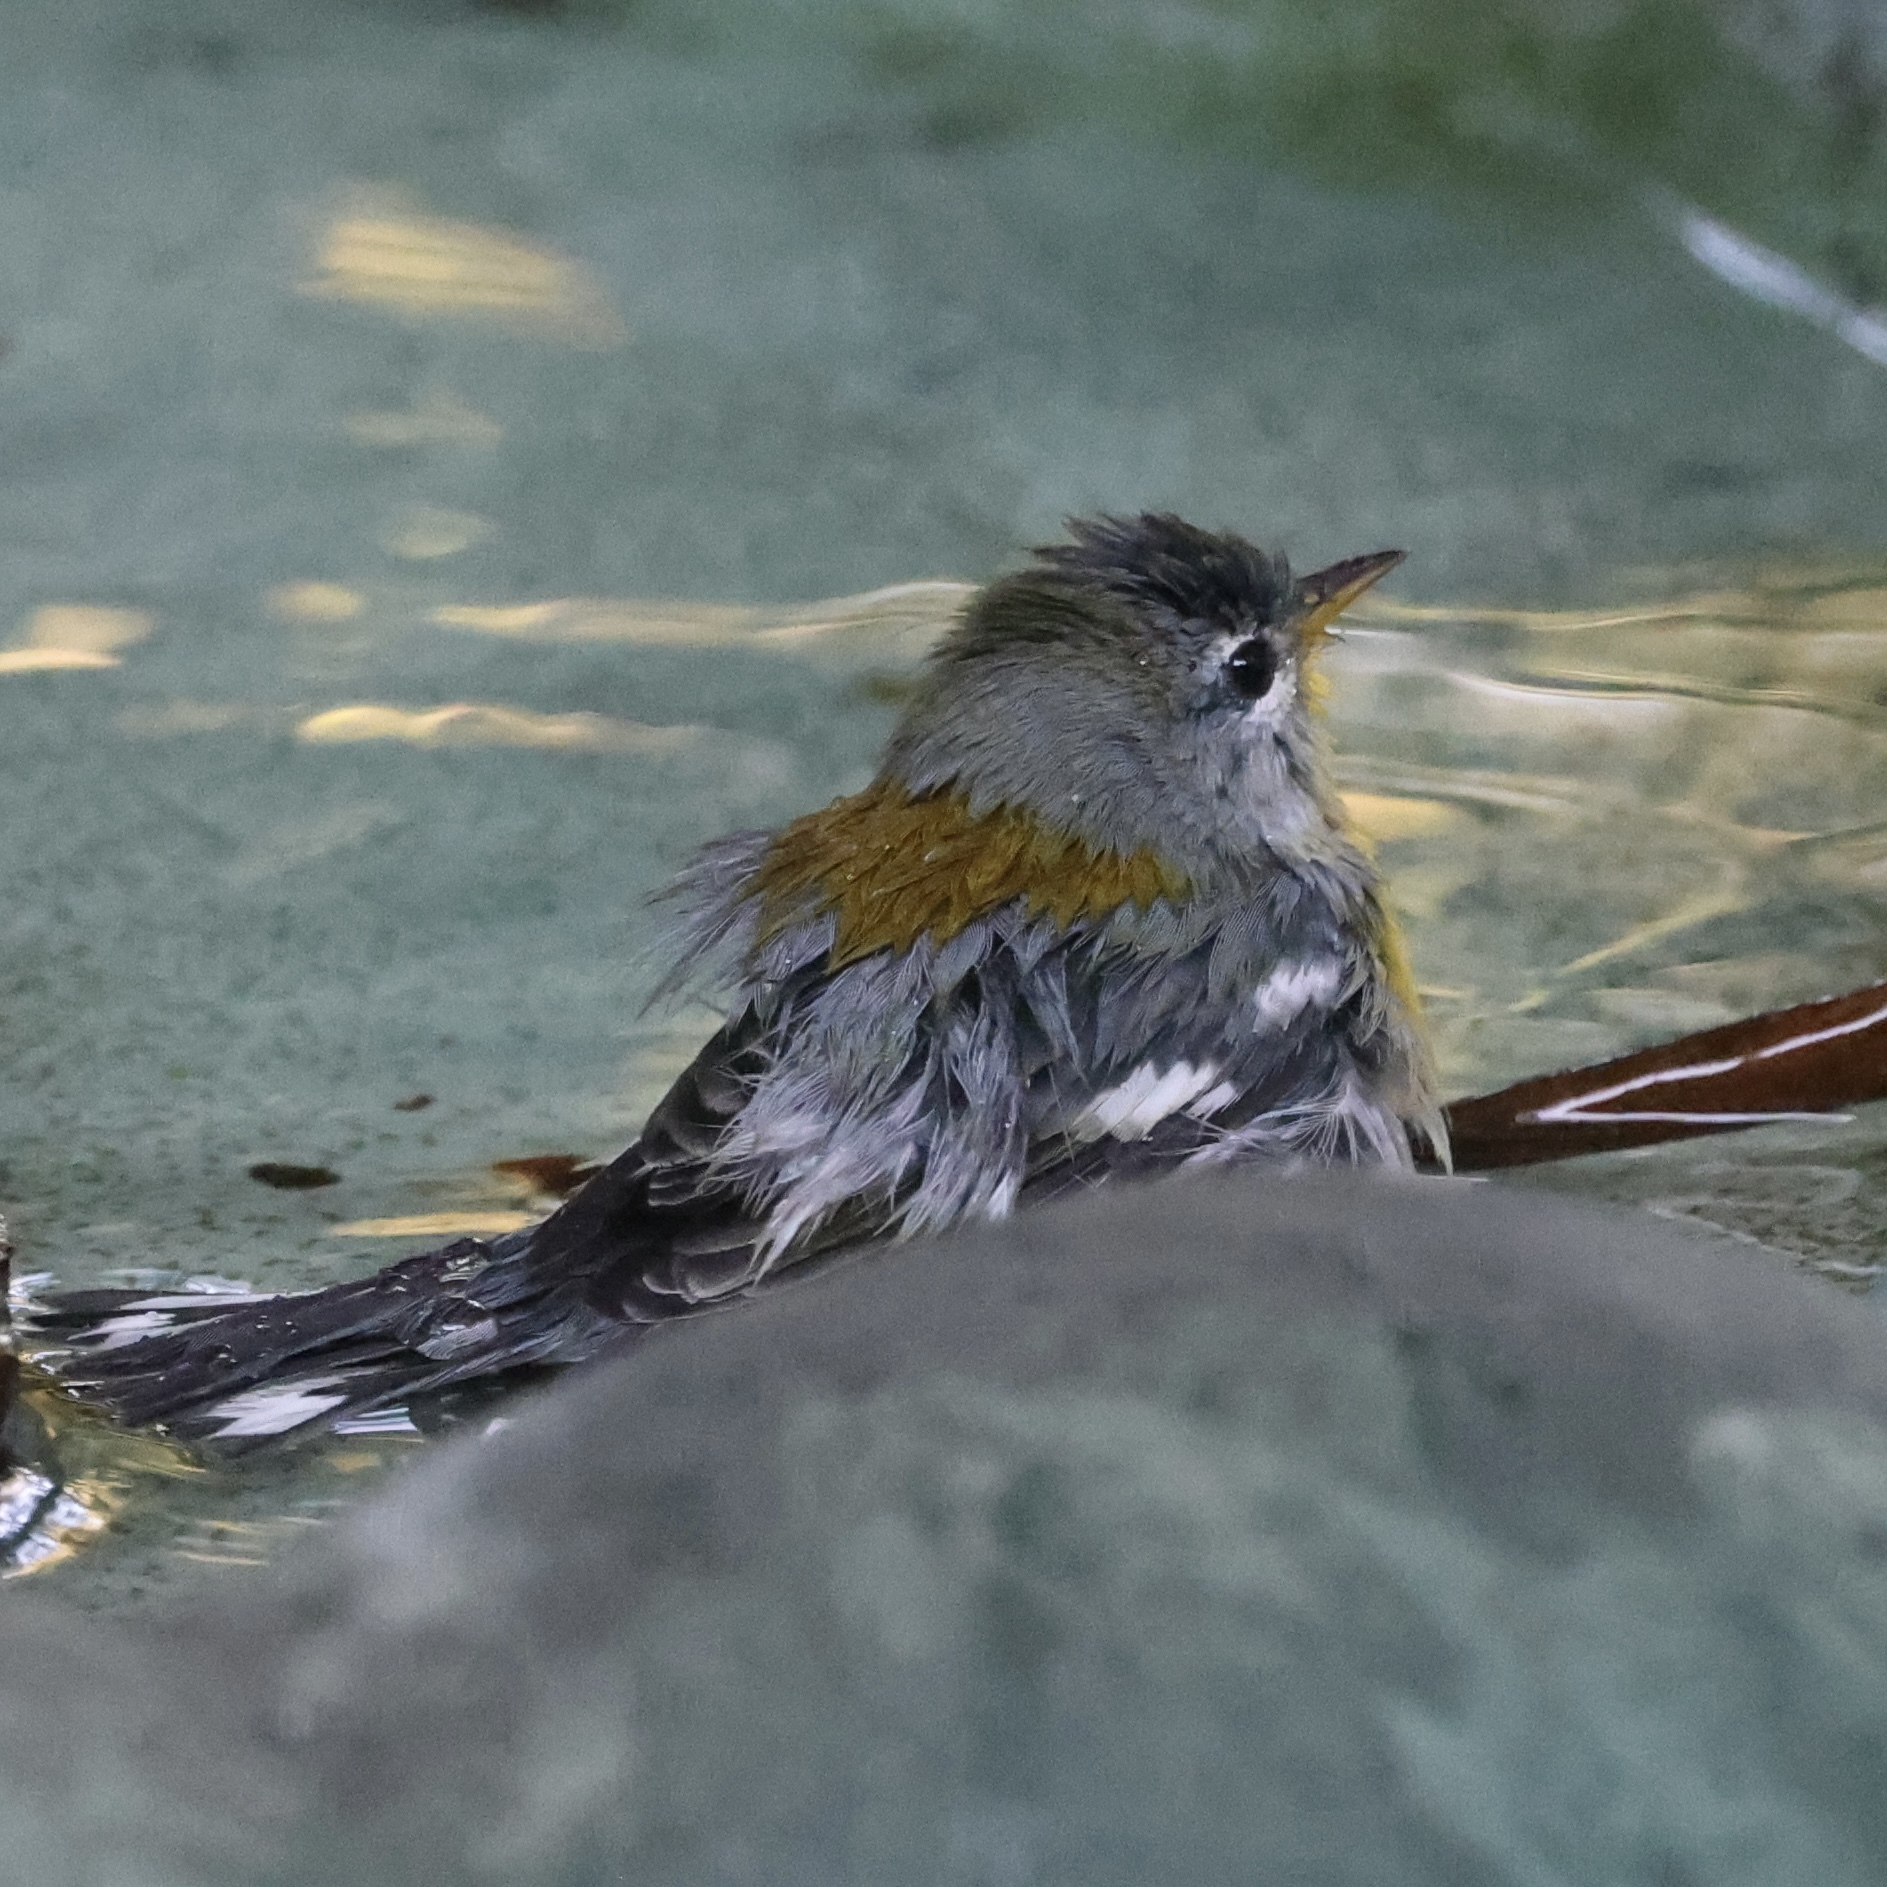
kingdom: Animalia
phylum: Chordata
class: Aves
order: Passeriformes
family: Parulidae
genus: Setophaga
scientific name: Setophaga americana
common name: Northern parula
